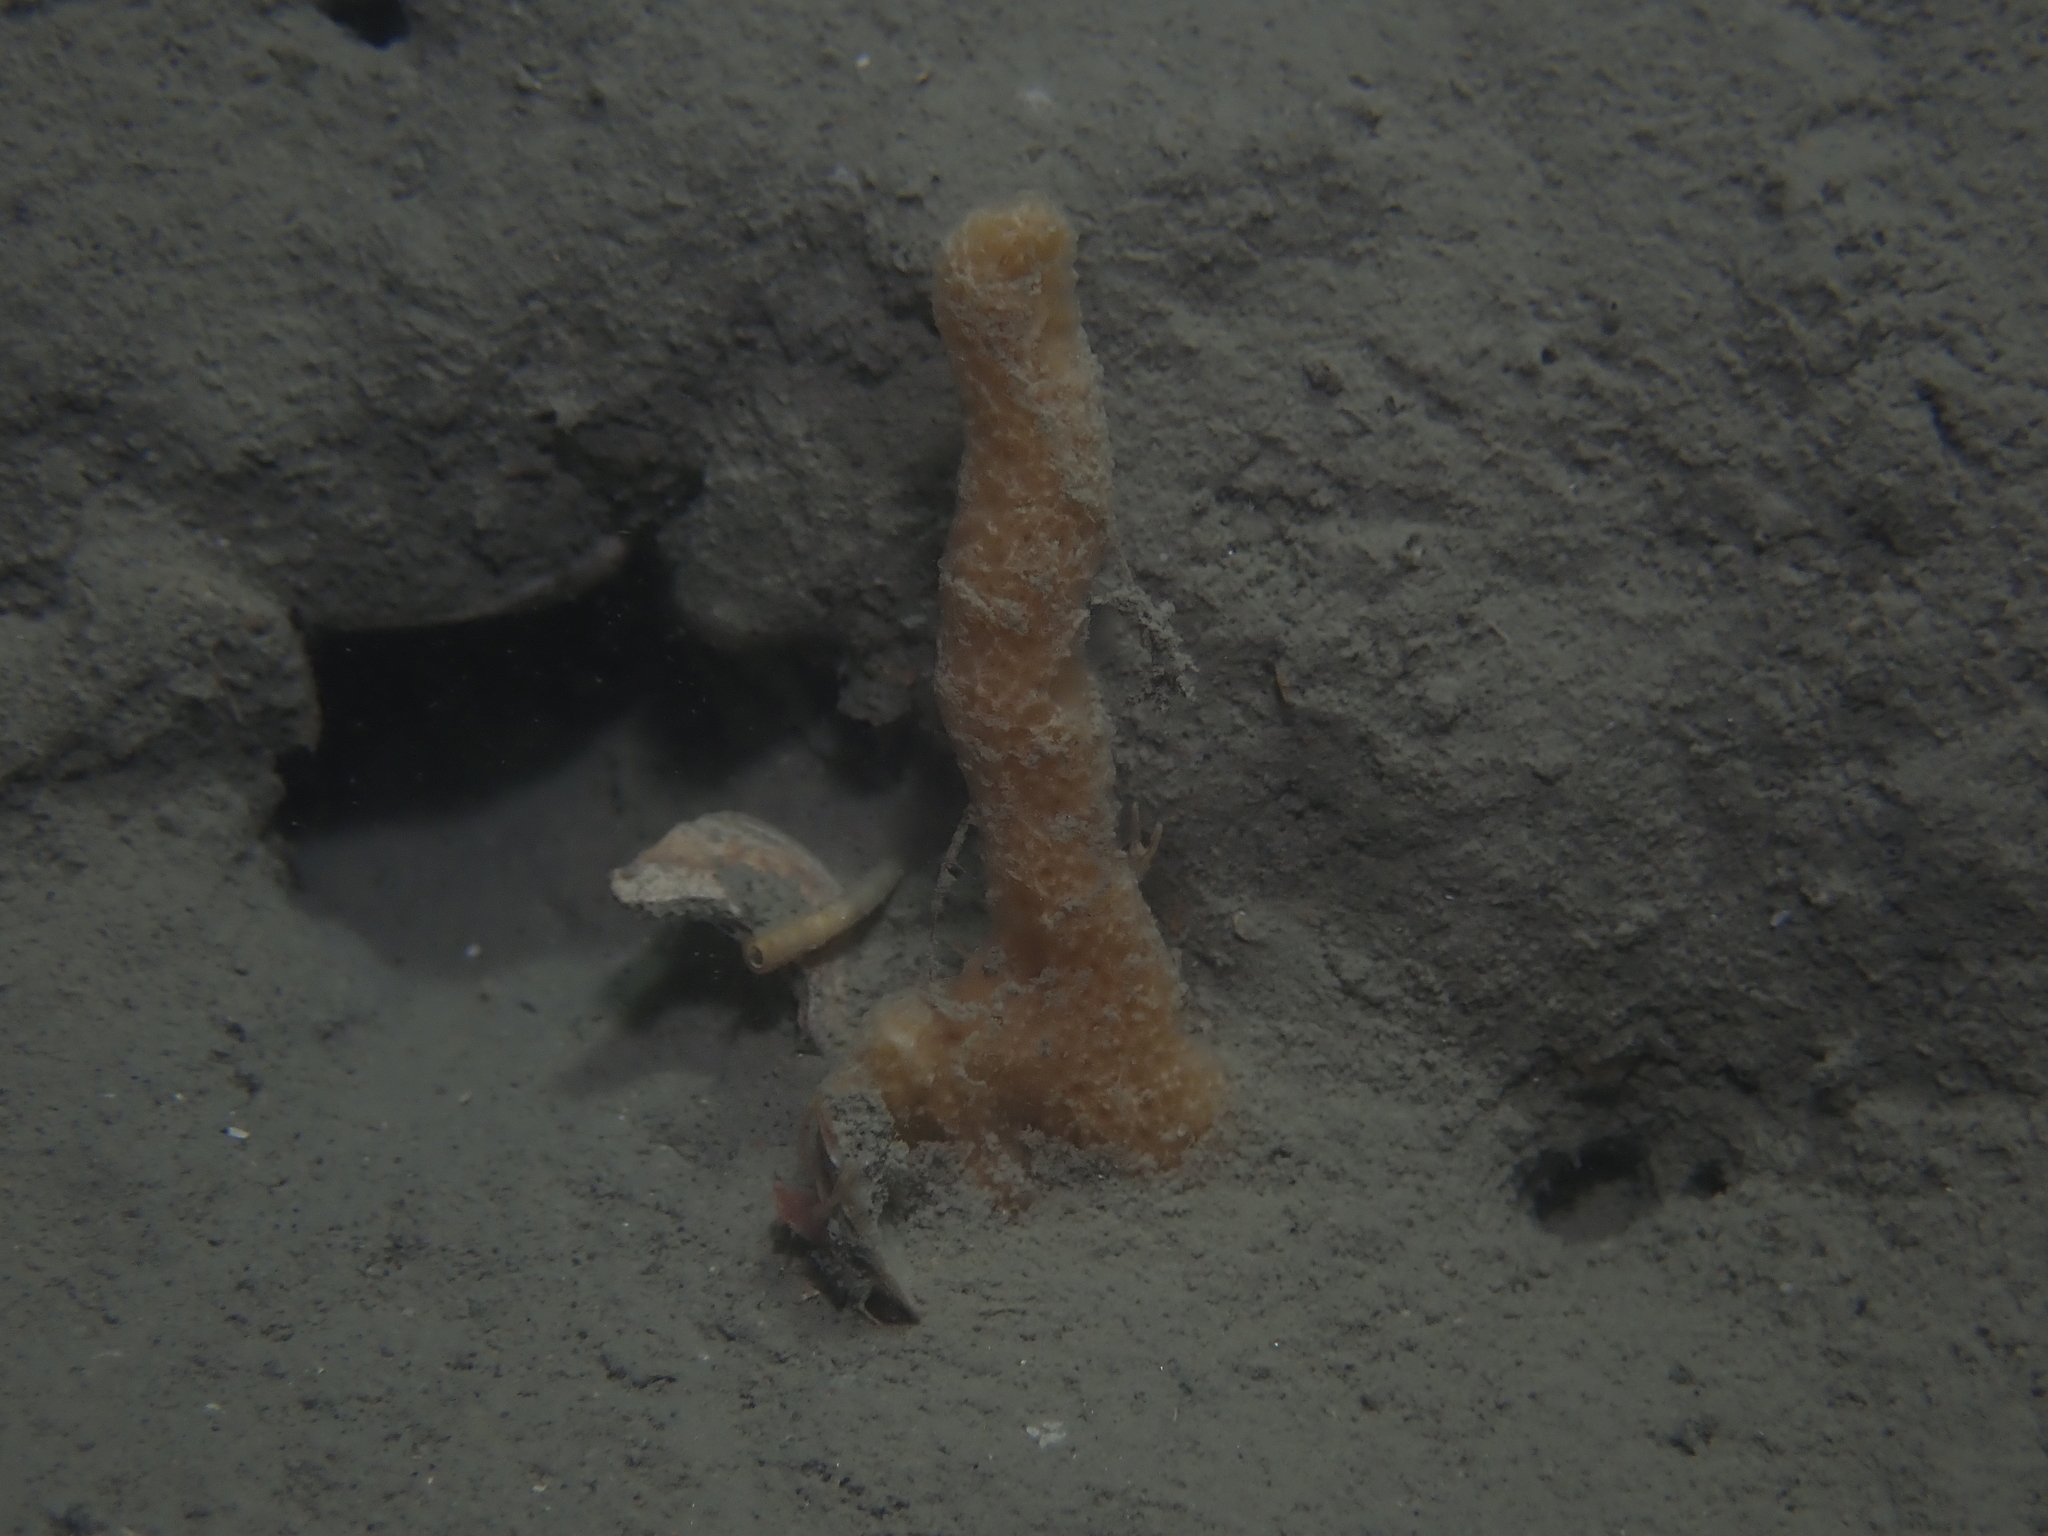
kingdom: Animalia
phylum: Porifera
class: Demospongiae
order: Poecilosclerida
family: Esperiopsidae
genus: Ulosa
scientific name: Ulosa digitata
